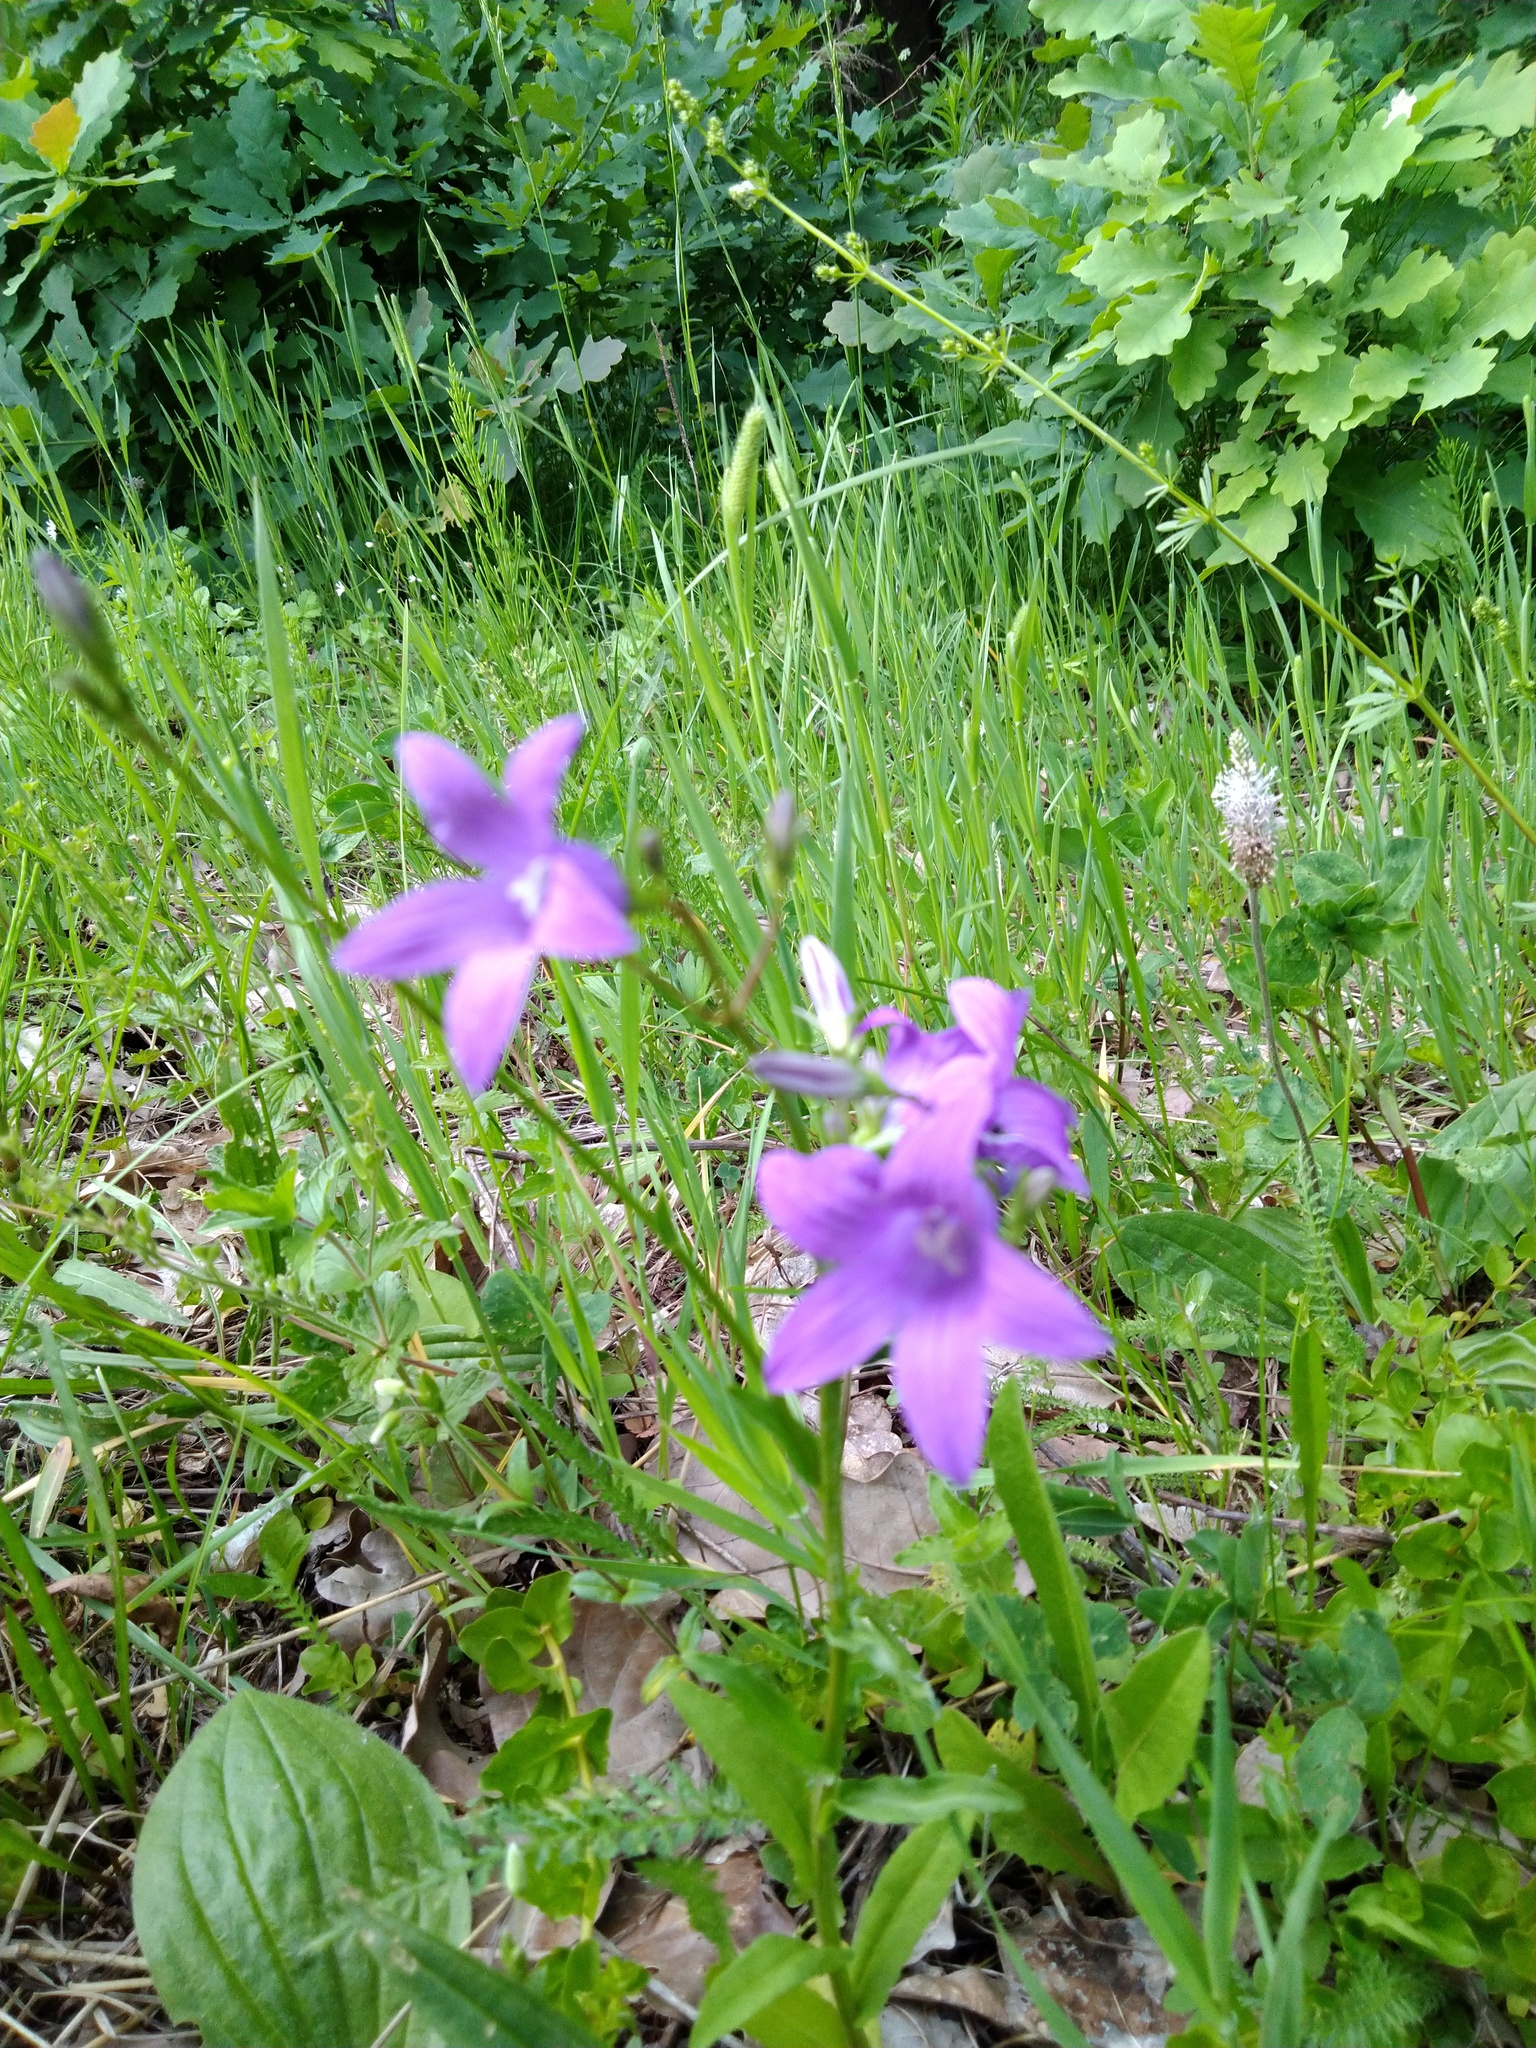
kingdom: Plantae
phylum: Tracheophyta
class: Magnoliopsida
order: Asterales
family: Campanulaceae
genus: Campanula
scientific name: Campanula patula
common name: Spreading bellflower
